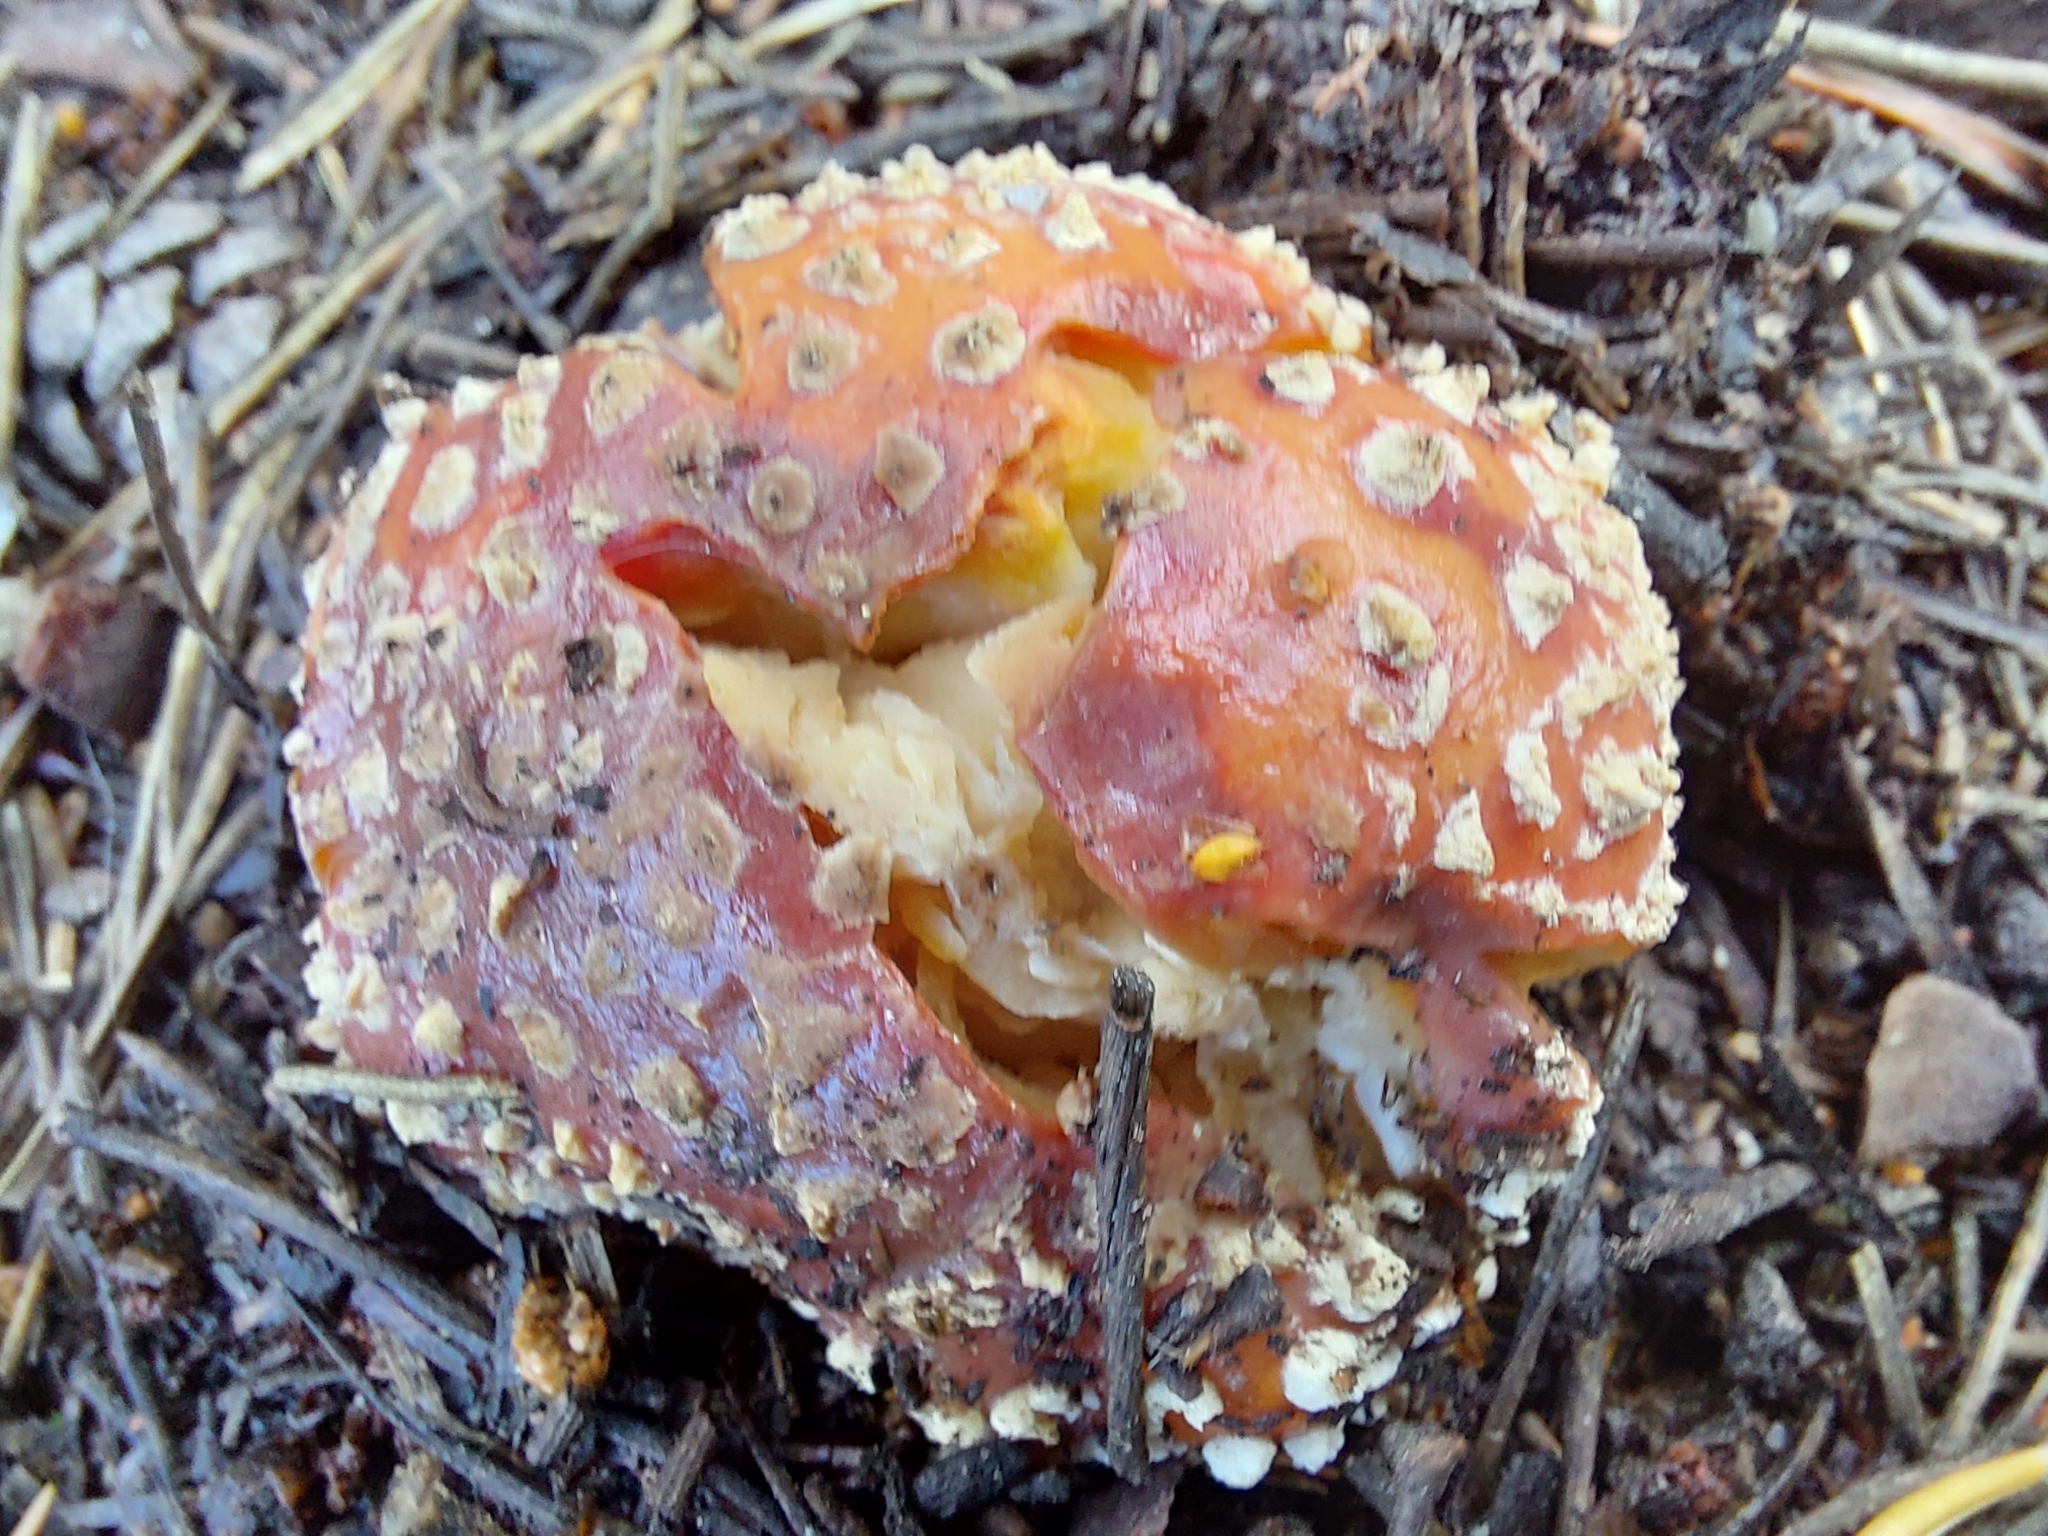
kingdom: Fungi
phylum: Basidiomycota
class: Agaricomycetes
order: Agaricales
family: Amanitaceae
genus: Amanita
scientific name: Amanita muscaria
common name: Fly agaric
